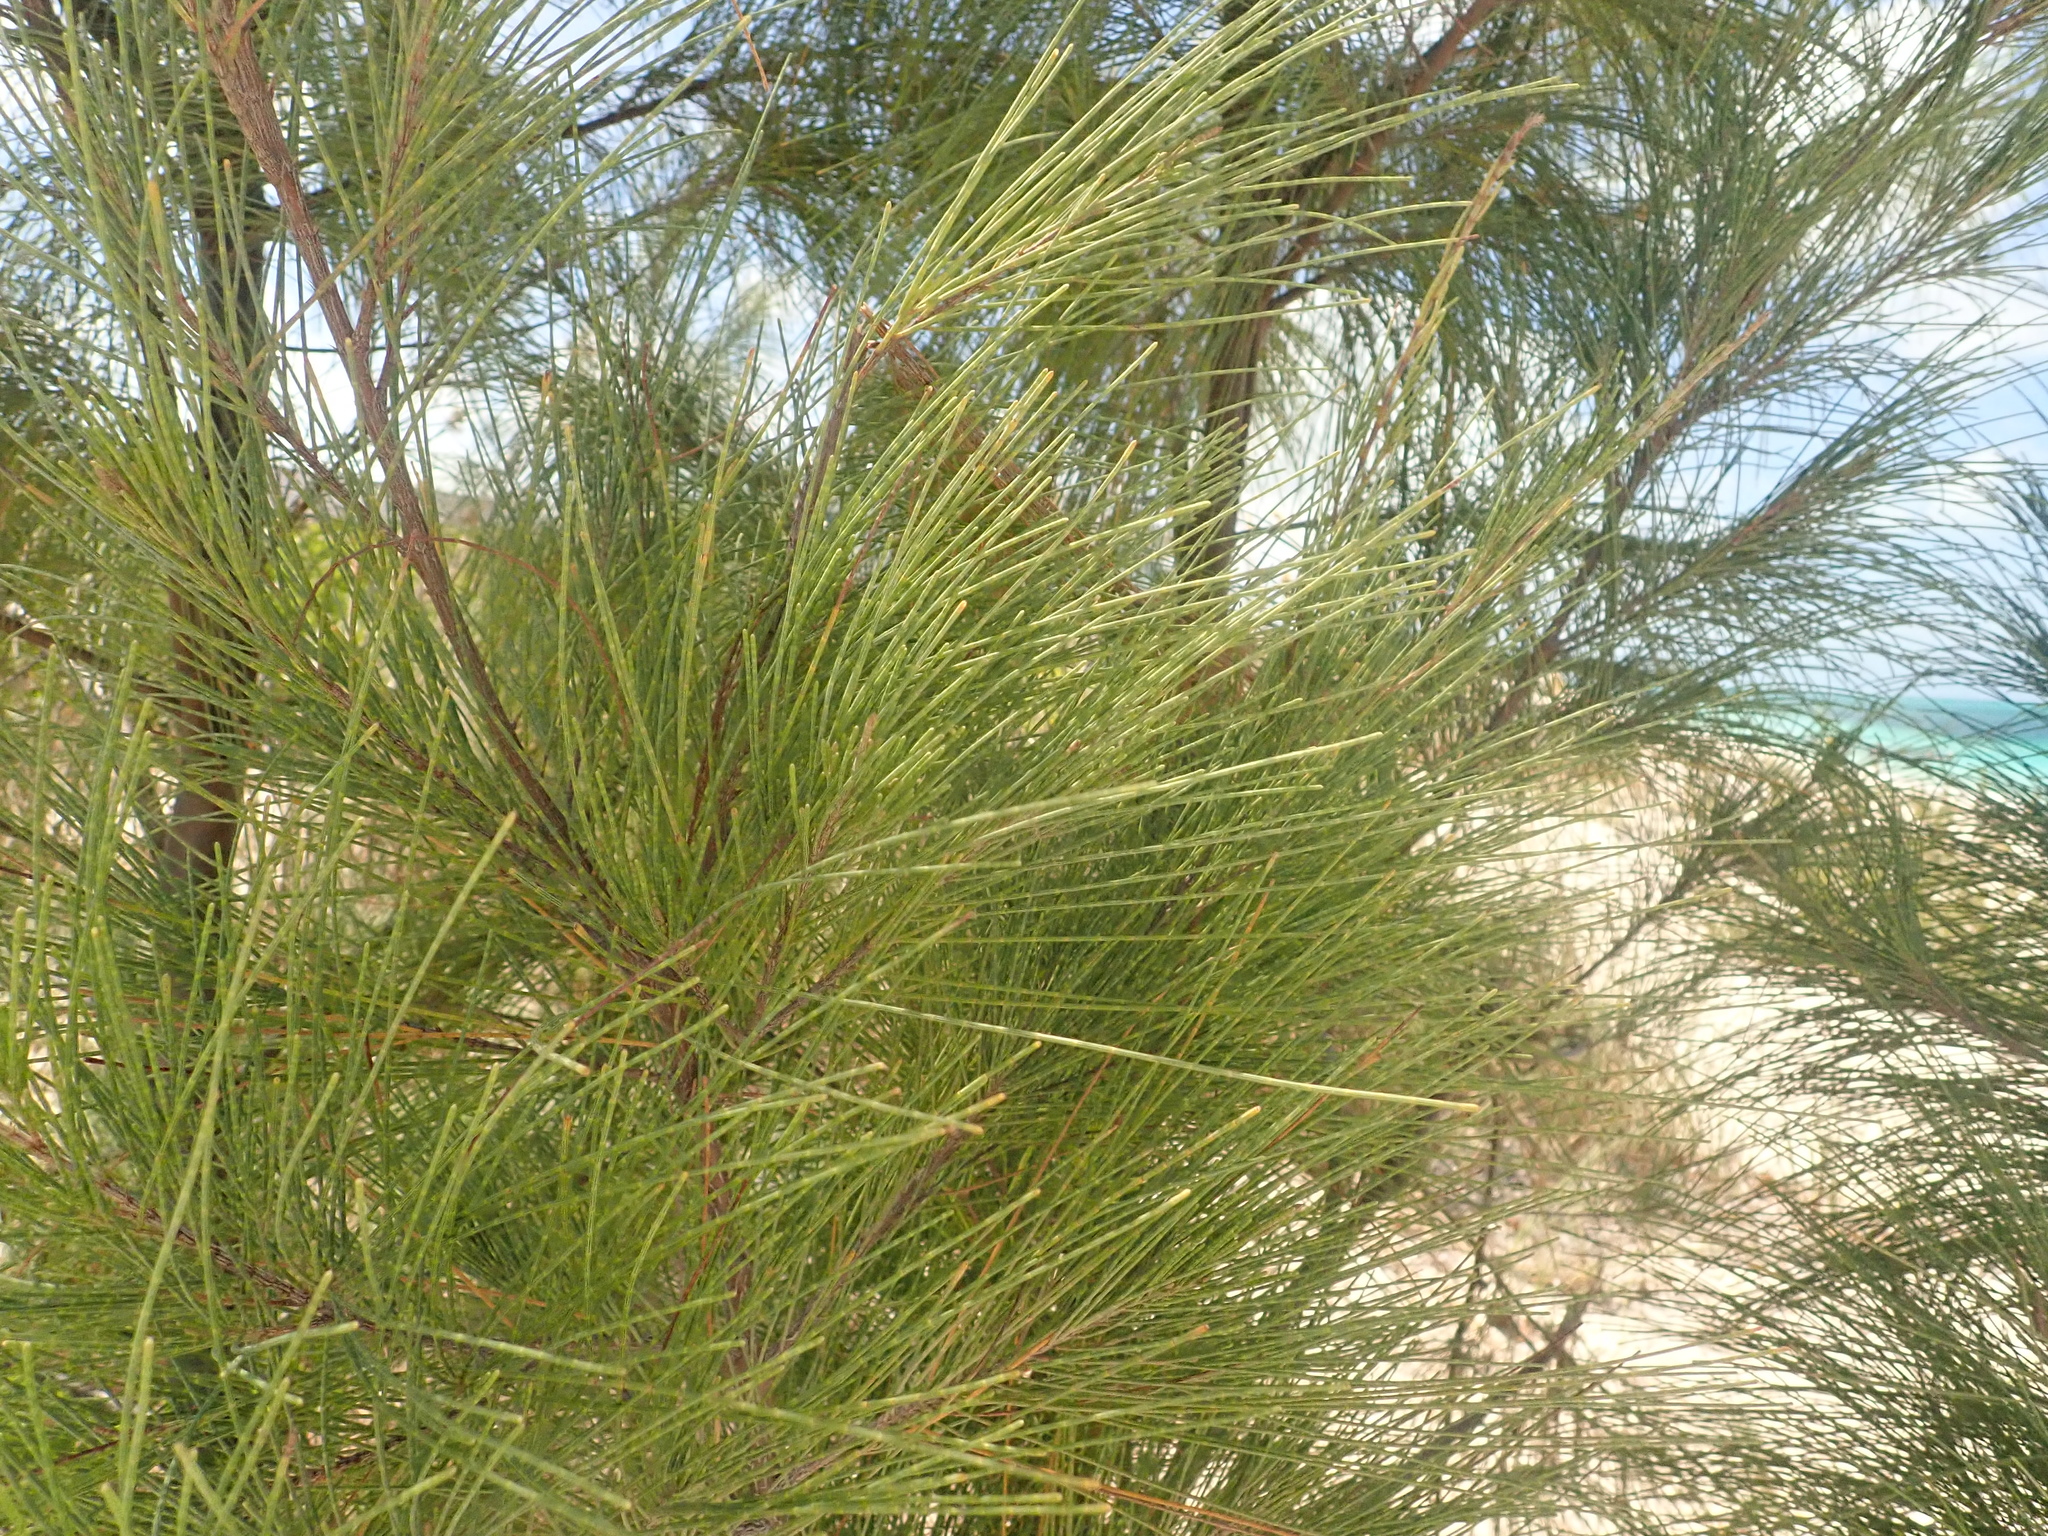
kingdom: Plantae
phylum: Tracheophyta
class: Magnoliopsida
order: Fagales
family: Casuarinaceae
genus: Casuarina
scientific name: Casuarina equisetifolia
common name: Beach sheoak
